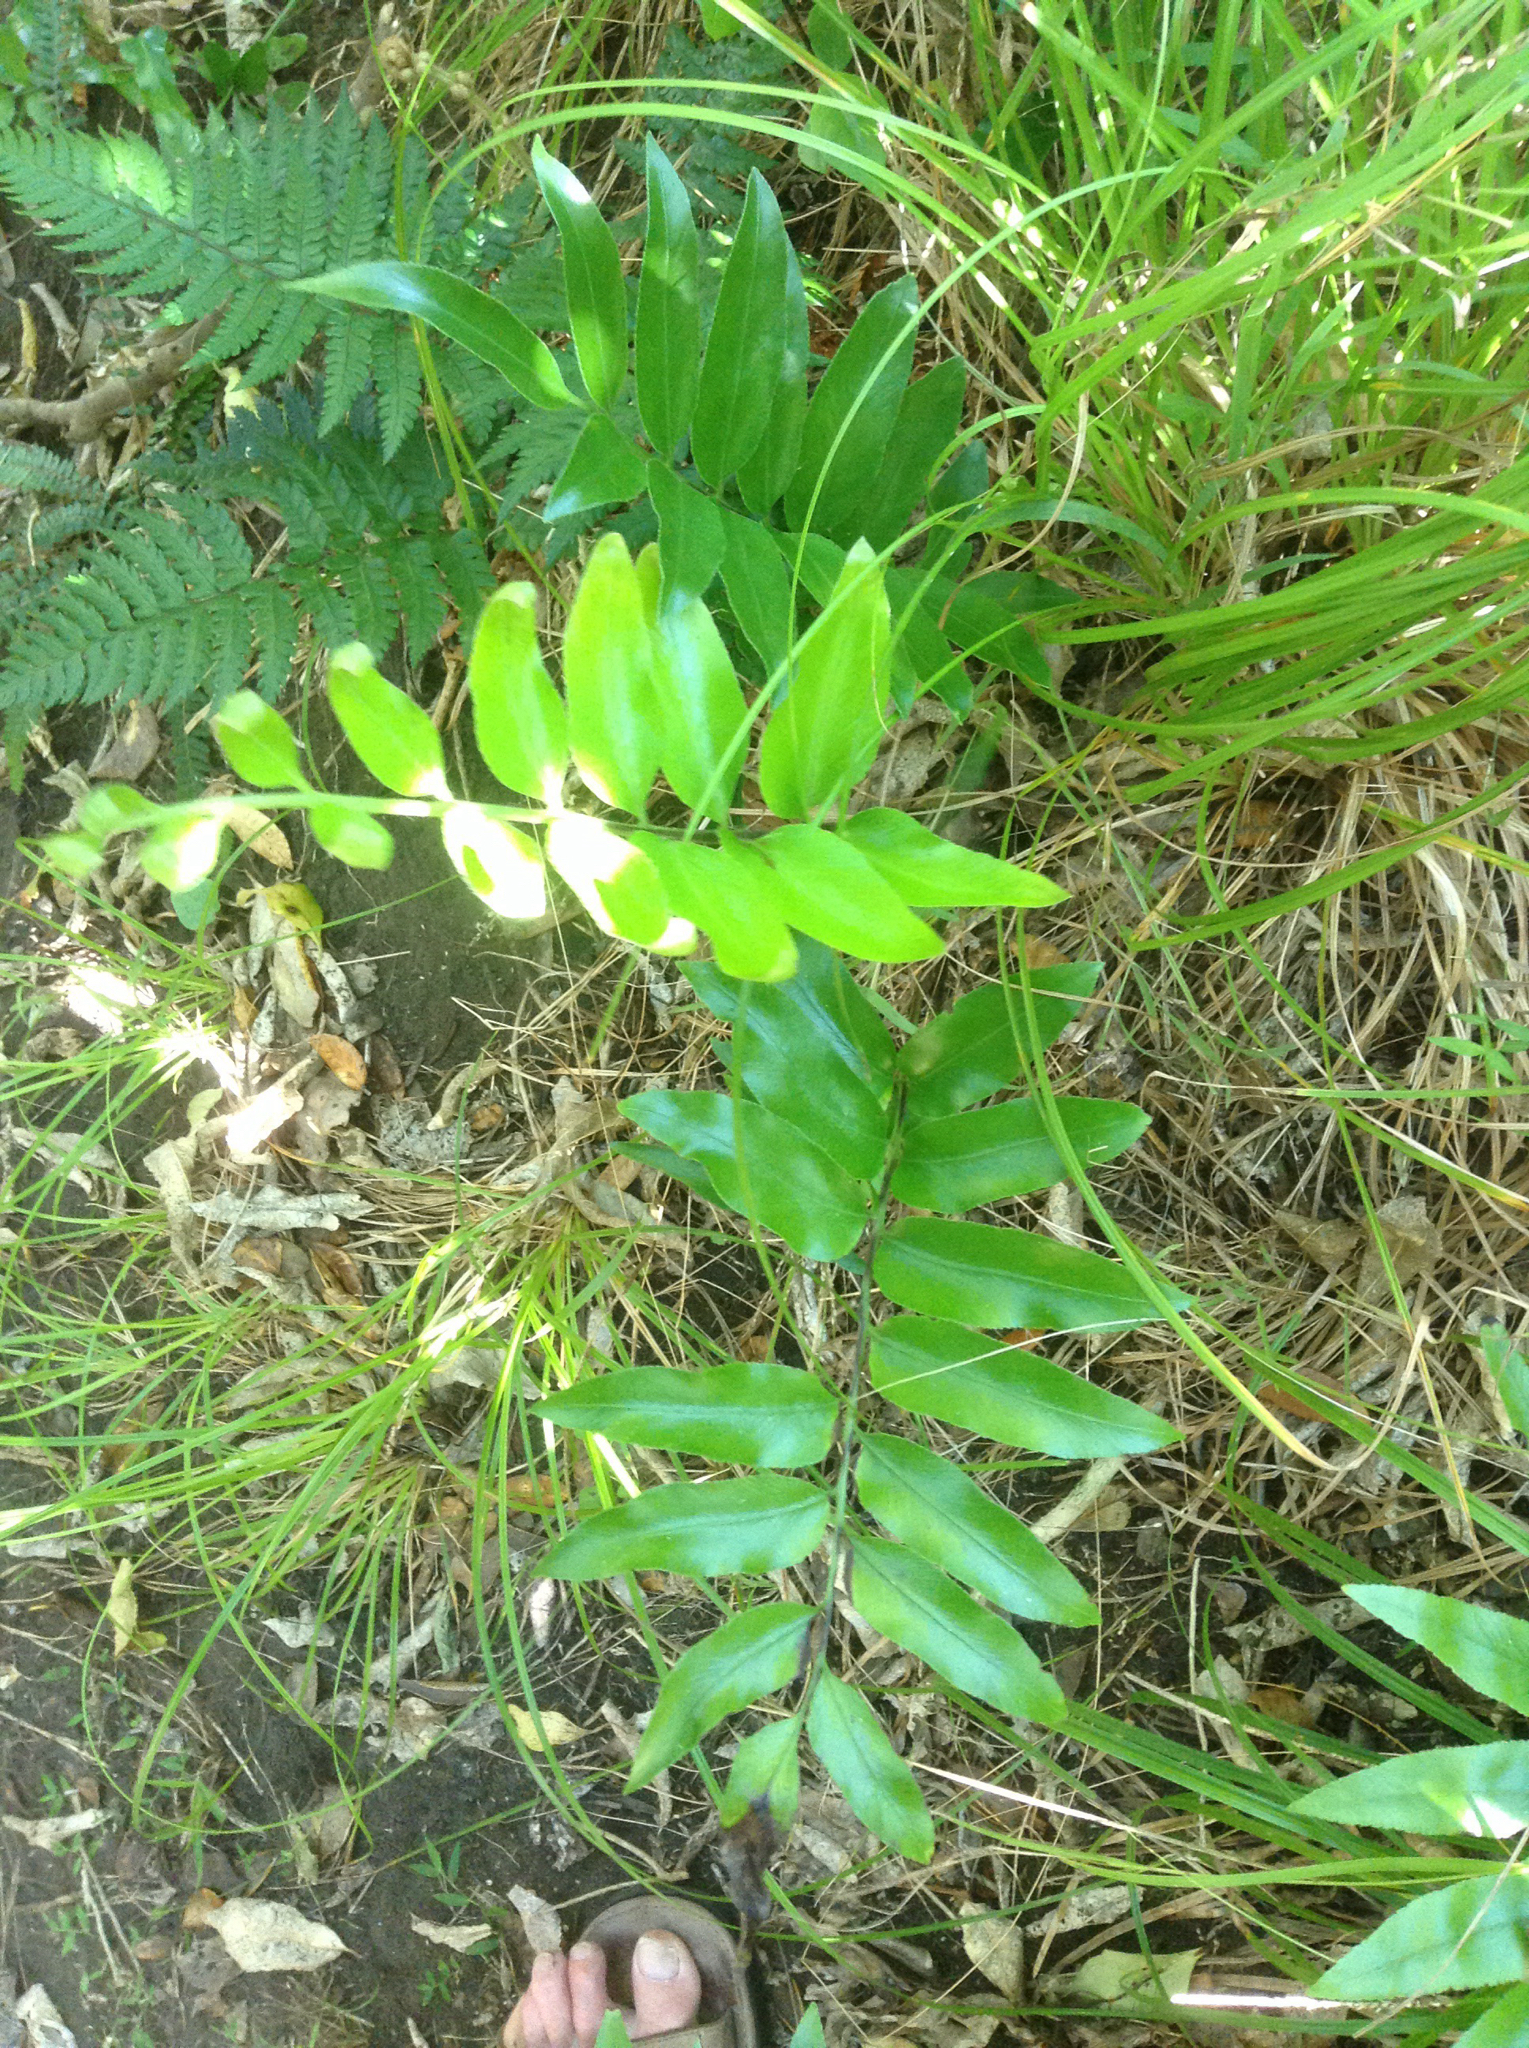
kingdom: Plantae
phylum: Tracheophyta
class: Polypodiopsida
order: Polypodiales
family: Aspleniaceae
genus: Asplenium
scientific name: Asplenium oblongifolium
